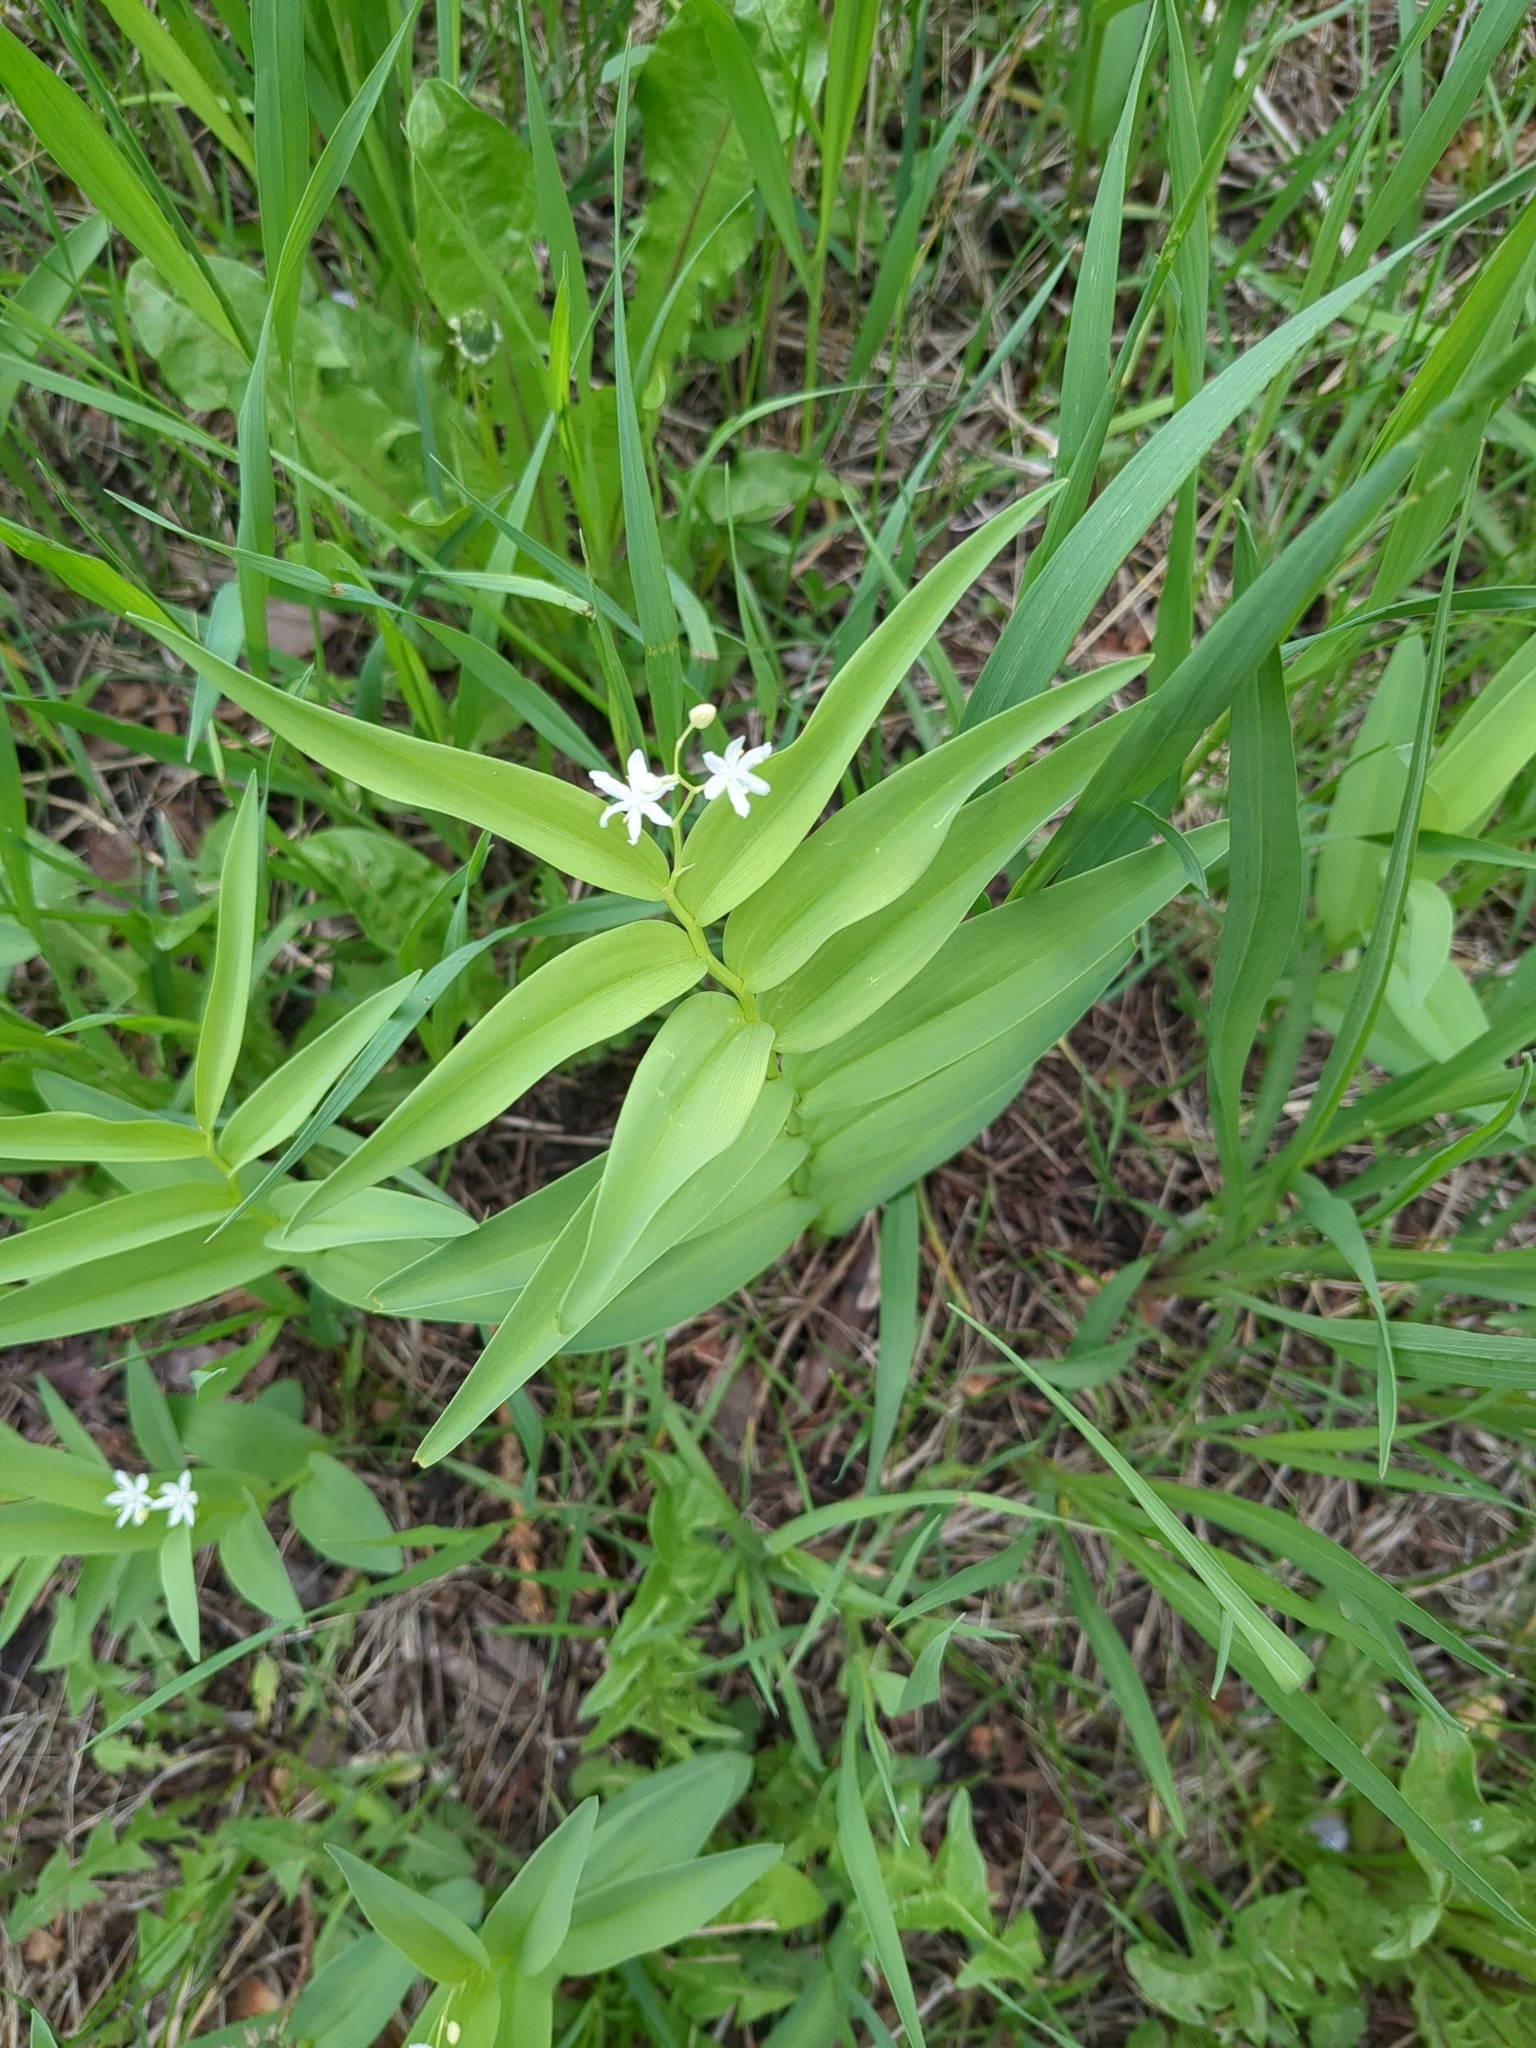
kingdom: Plantae
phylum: Tracheophyta
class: Liliopsida
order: Asparagales
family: Asparagaceae
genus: Maianthemum
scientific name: Maianthemum stellatum
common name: Little false solomon's seal
